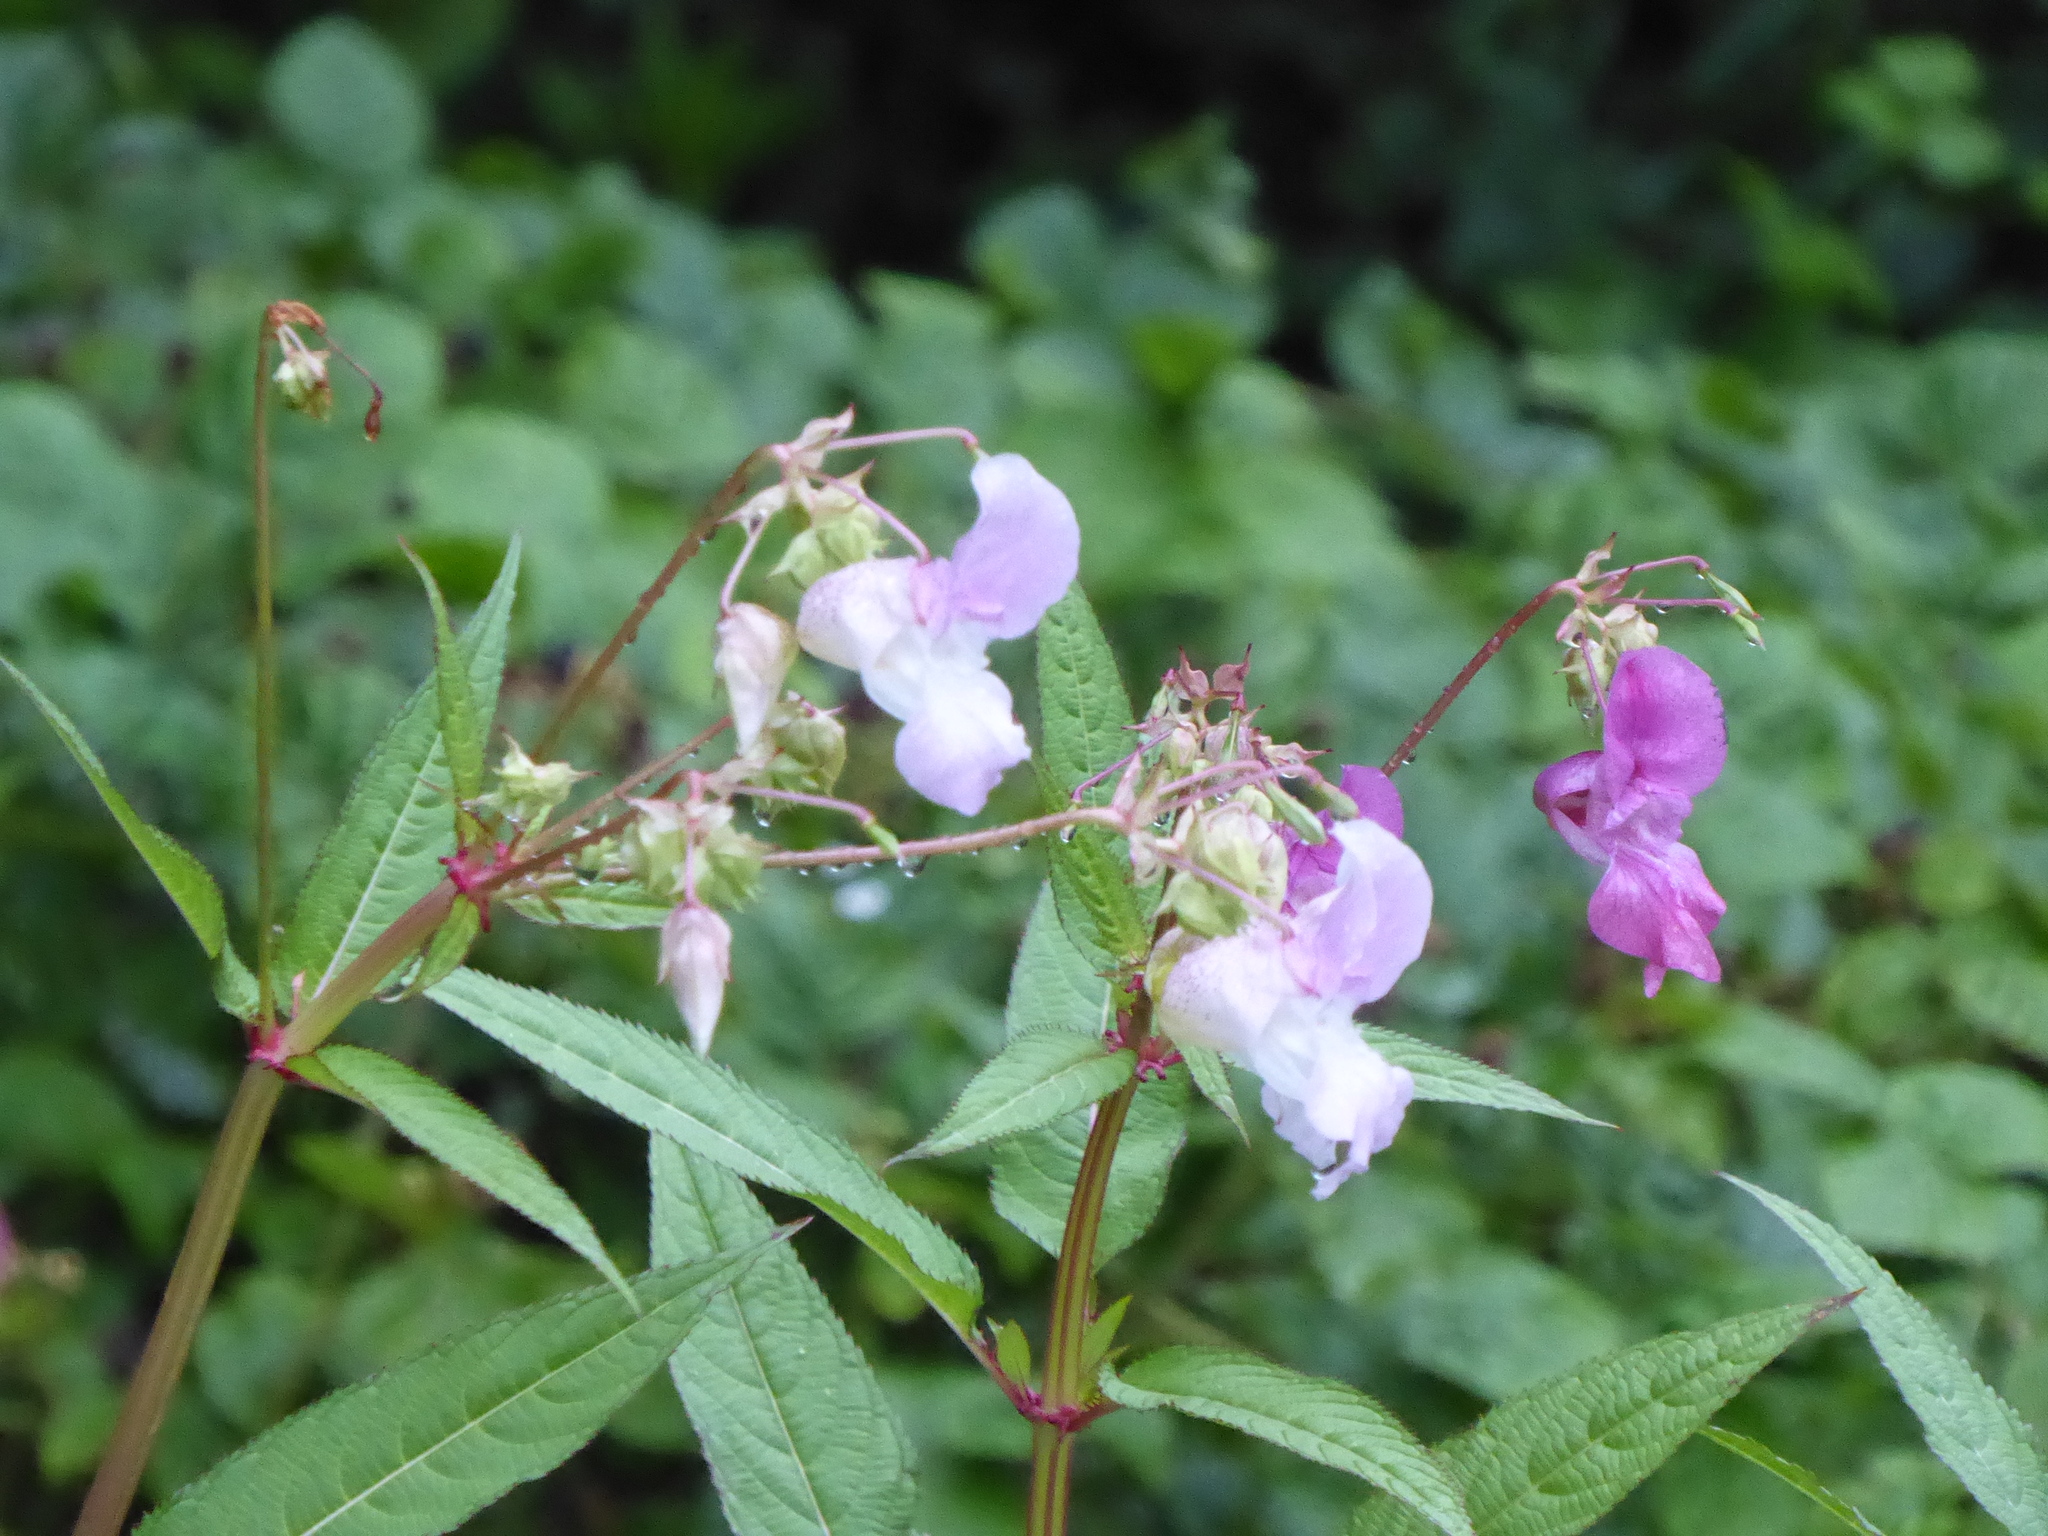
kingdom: Plantae
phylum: Tracheophyta
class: Magnoliopsida
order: Ericales
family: Balsaminaceae
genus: Impatiens
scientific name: Impatiens glandulifera
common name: Himalayan balsam
